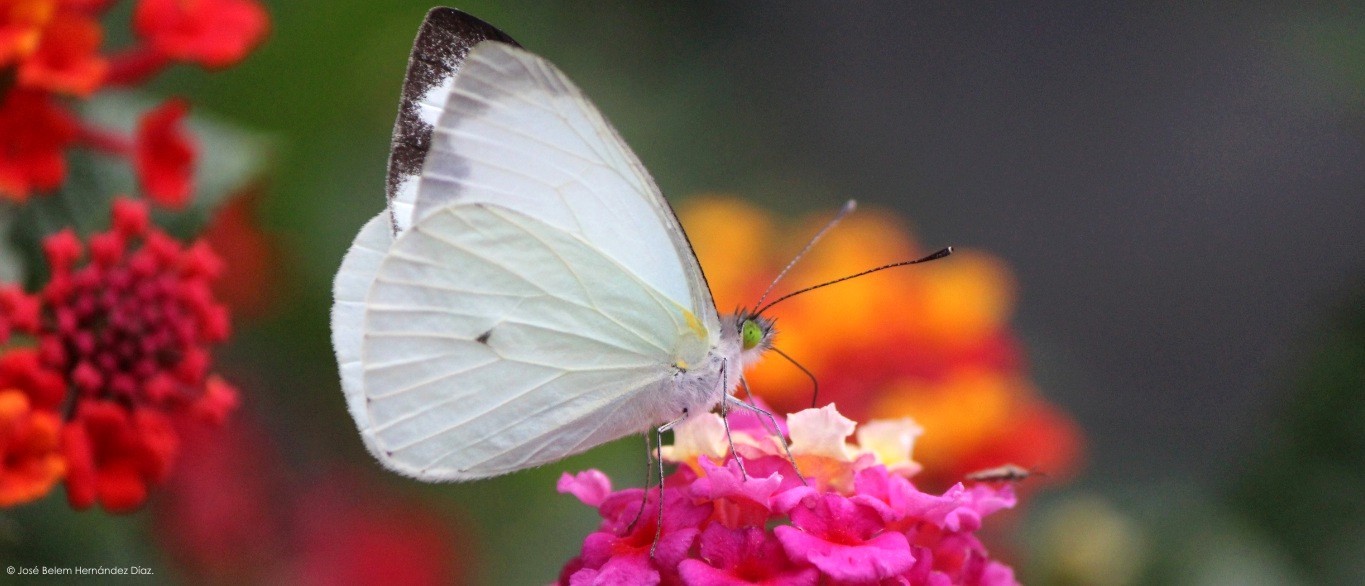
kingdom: Animalia
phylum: Arthropoda
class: Insecta
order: Lepidoptera
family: Pieridae
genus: Leptophobia
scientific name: Leptophobia aripa
